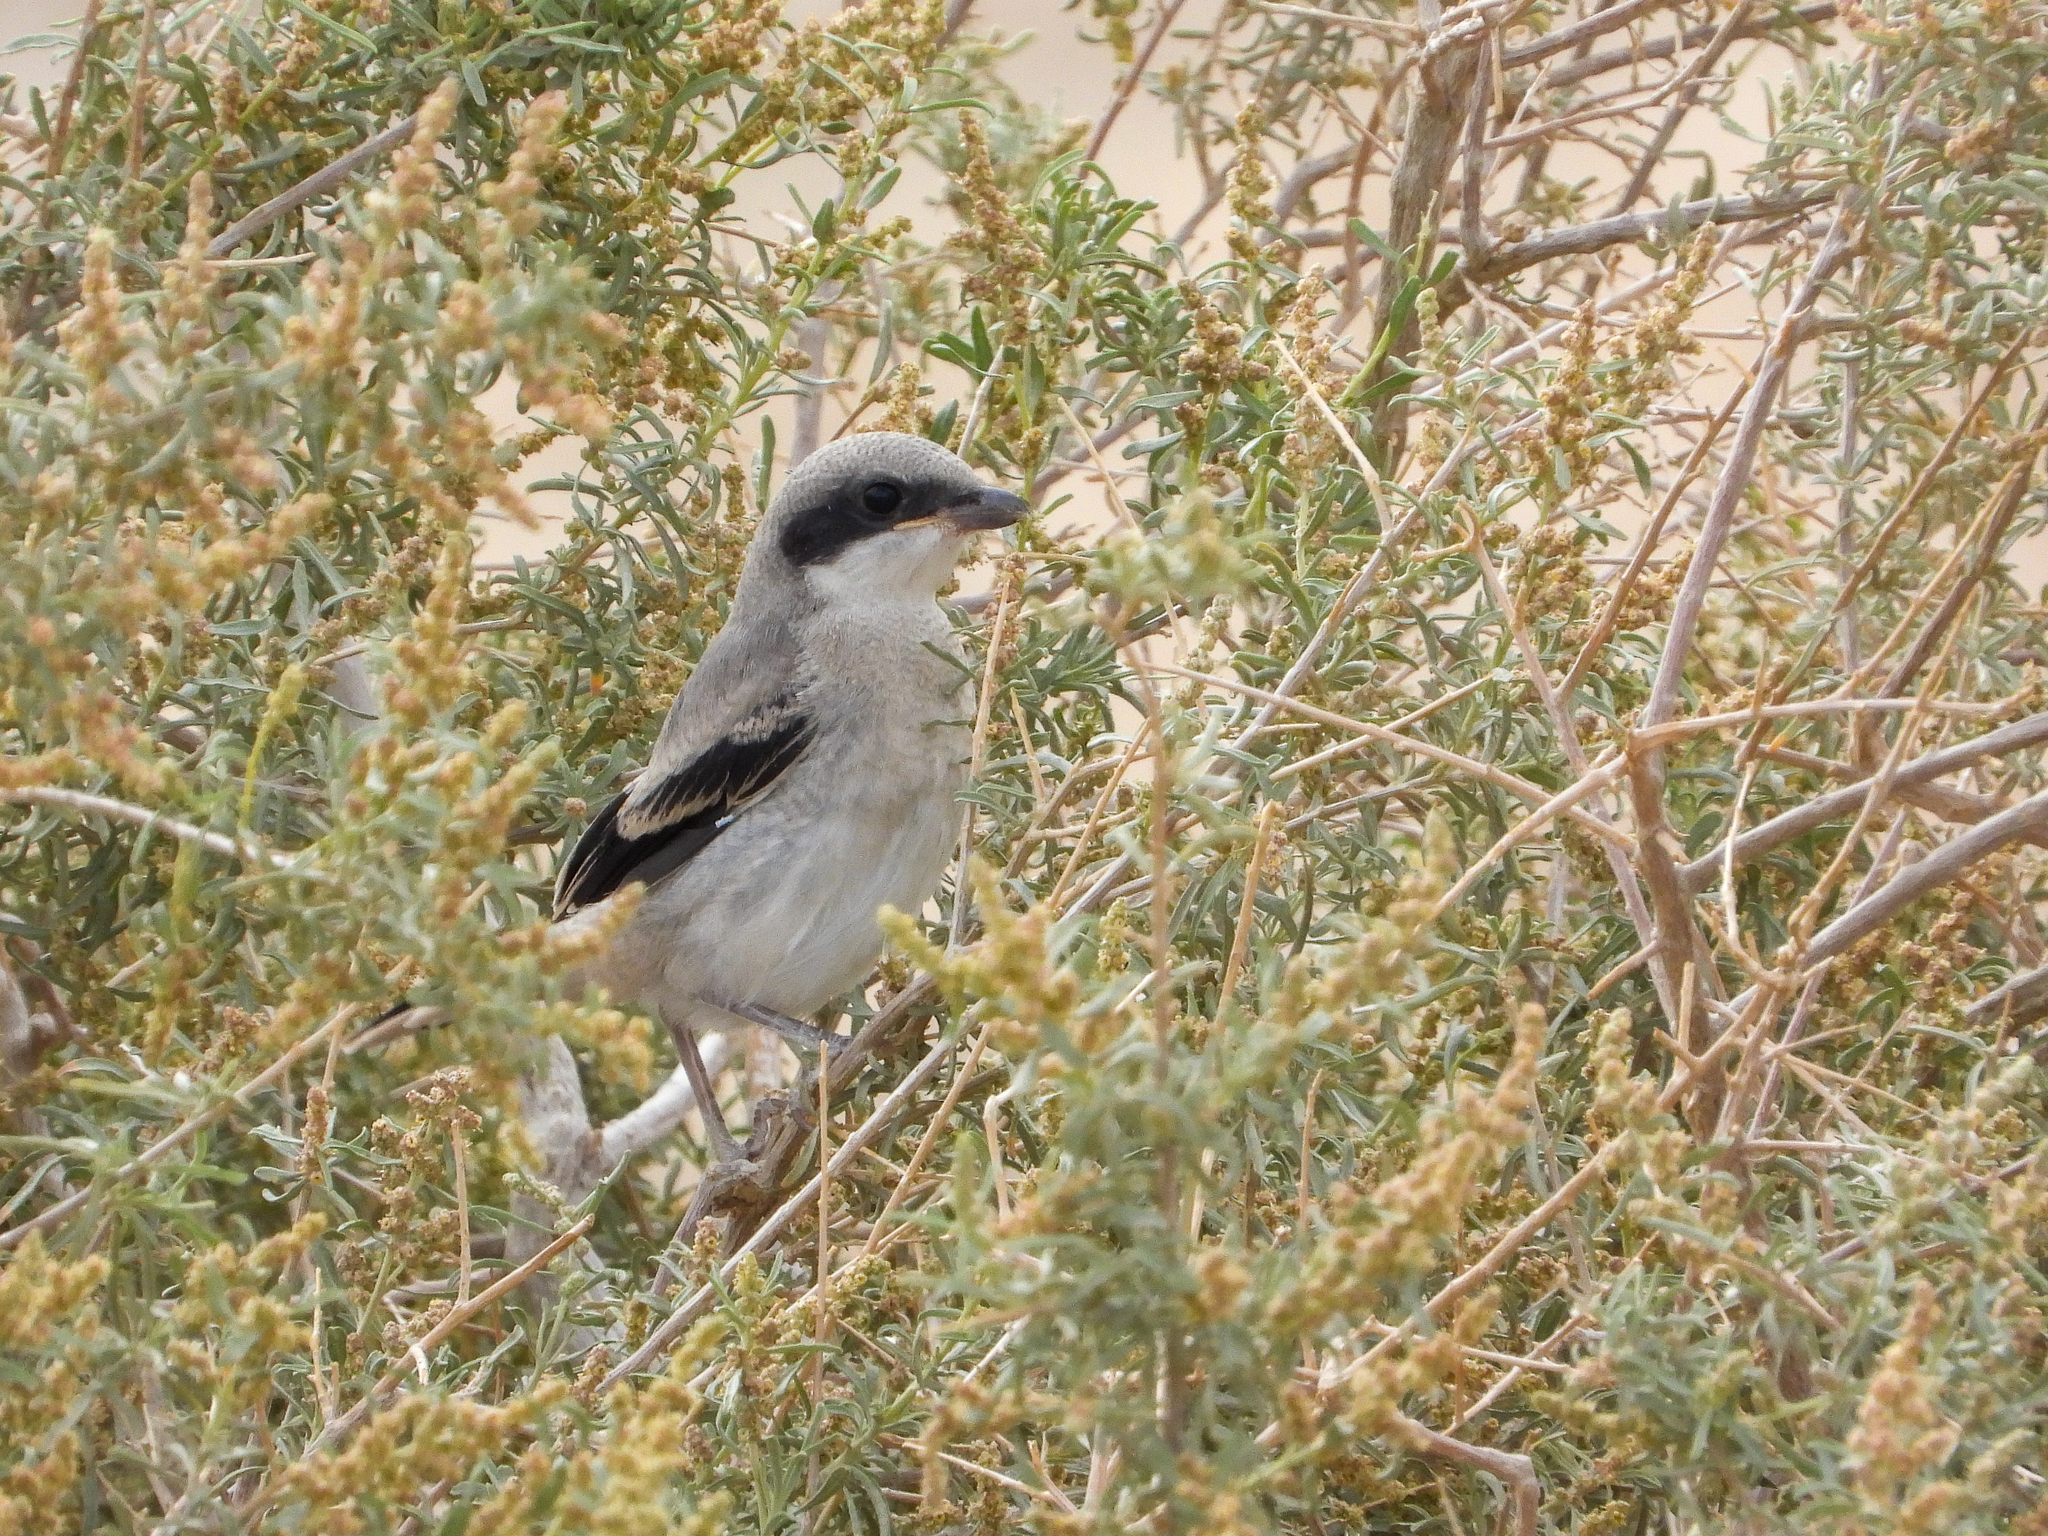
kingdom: Animalia
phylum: Chordata
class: Aves
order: Passeriformes
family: Laniidae
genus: Lanius
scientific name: Lanius ludovicianus
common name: Loggerhead shrike
